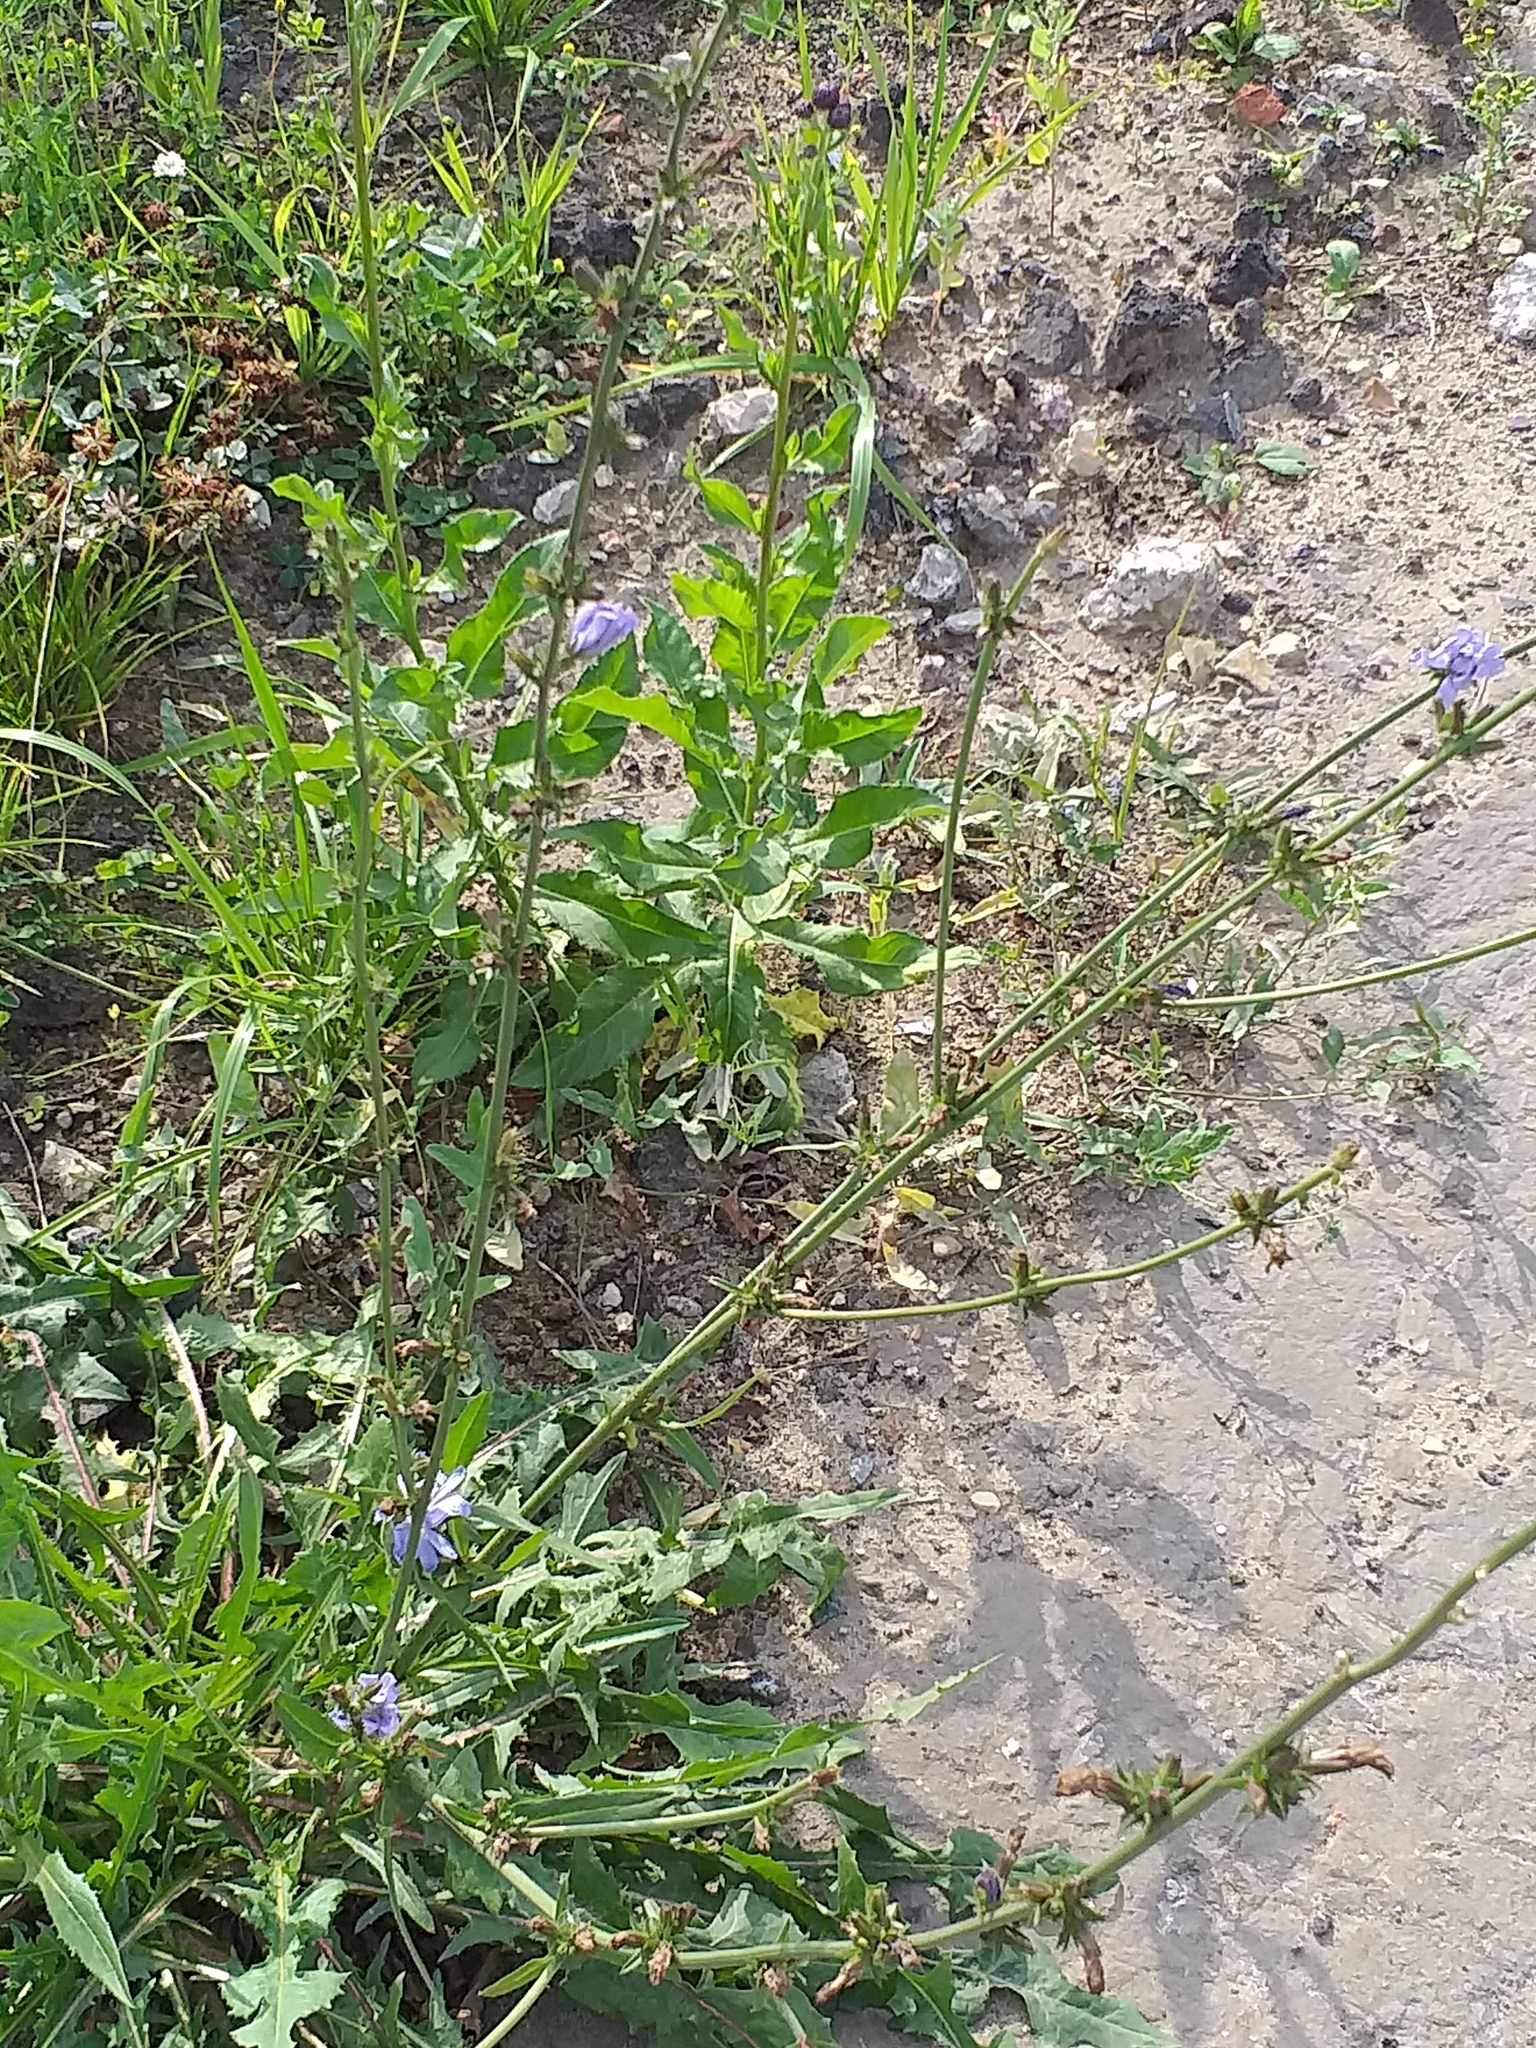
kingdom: Plantae
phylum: Tracheophyta
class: Magnoliopsida
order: Asterales
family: Asteraceae
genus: Cichorium
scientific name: Cichorium intybus
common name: Chicory
